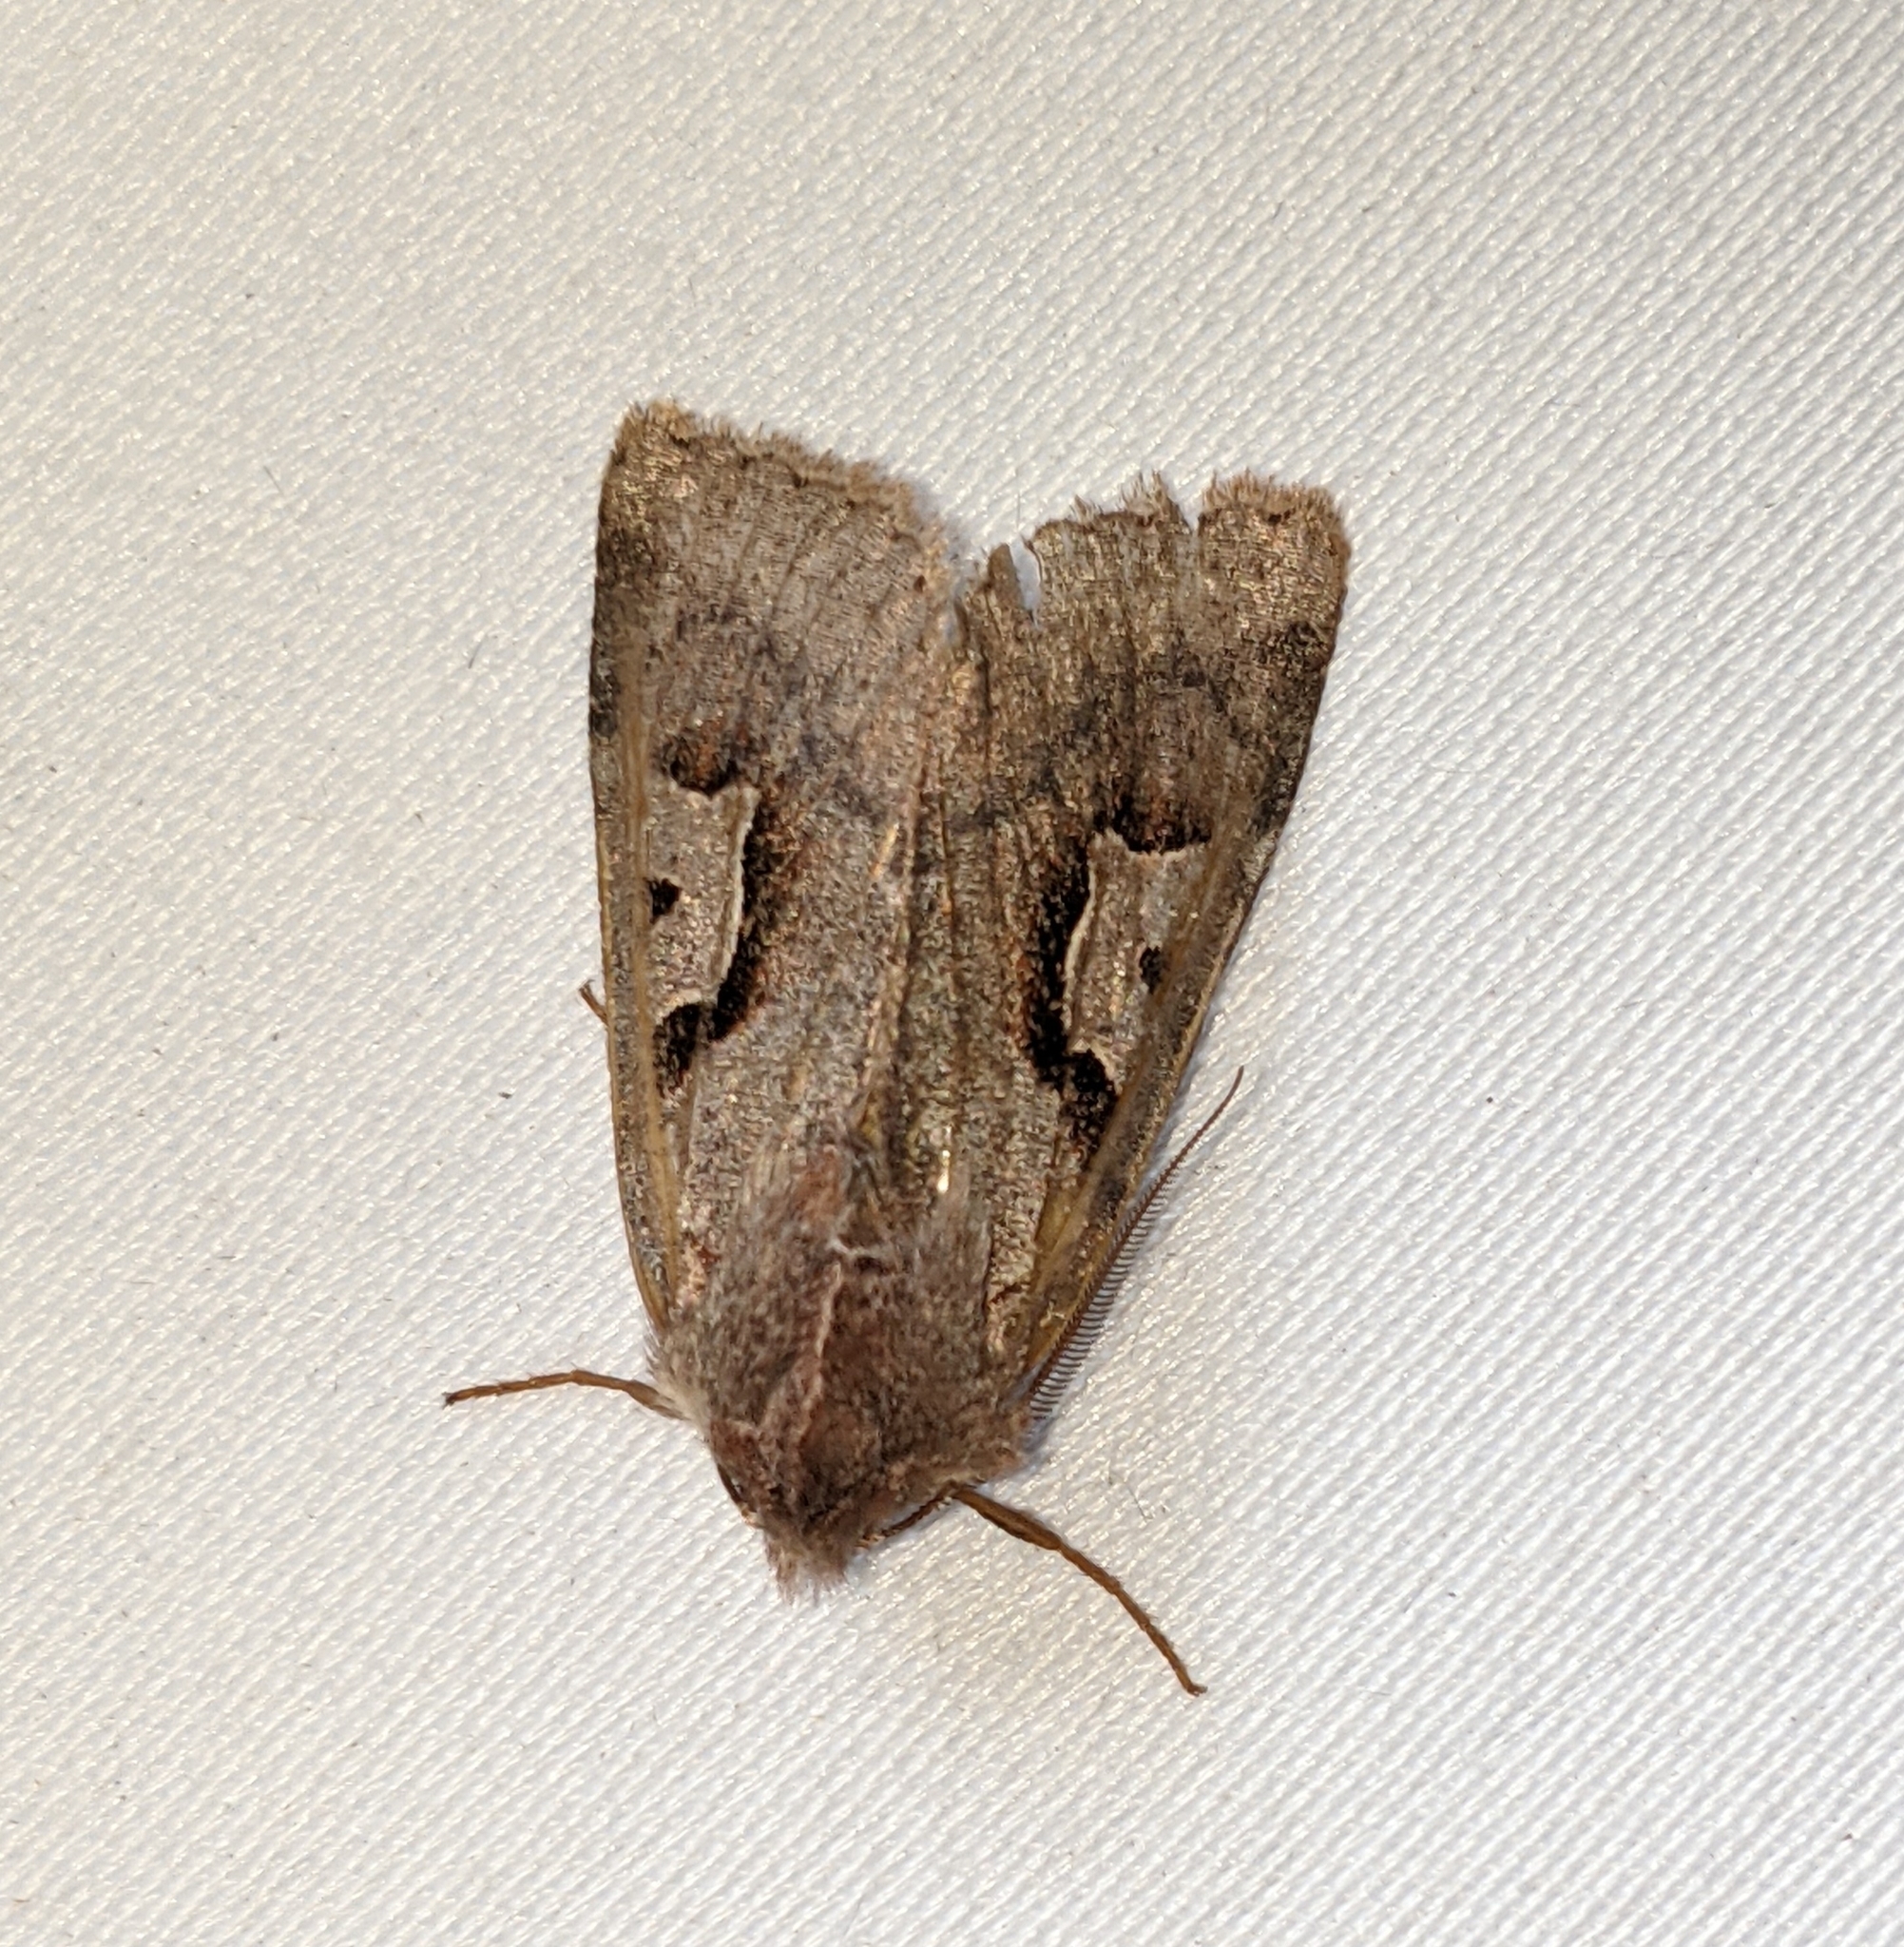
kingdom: Animalia
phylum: Arthropoda
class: Insecta
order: Lepidoptera
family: Noctuidae
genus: Acerra
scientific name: Acerra normalis
